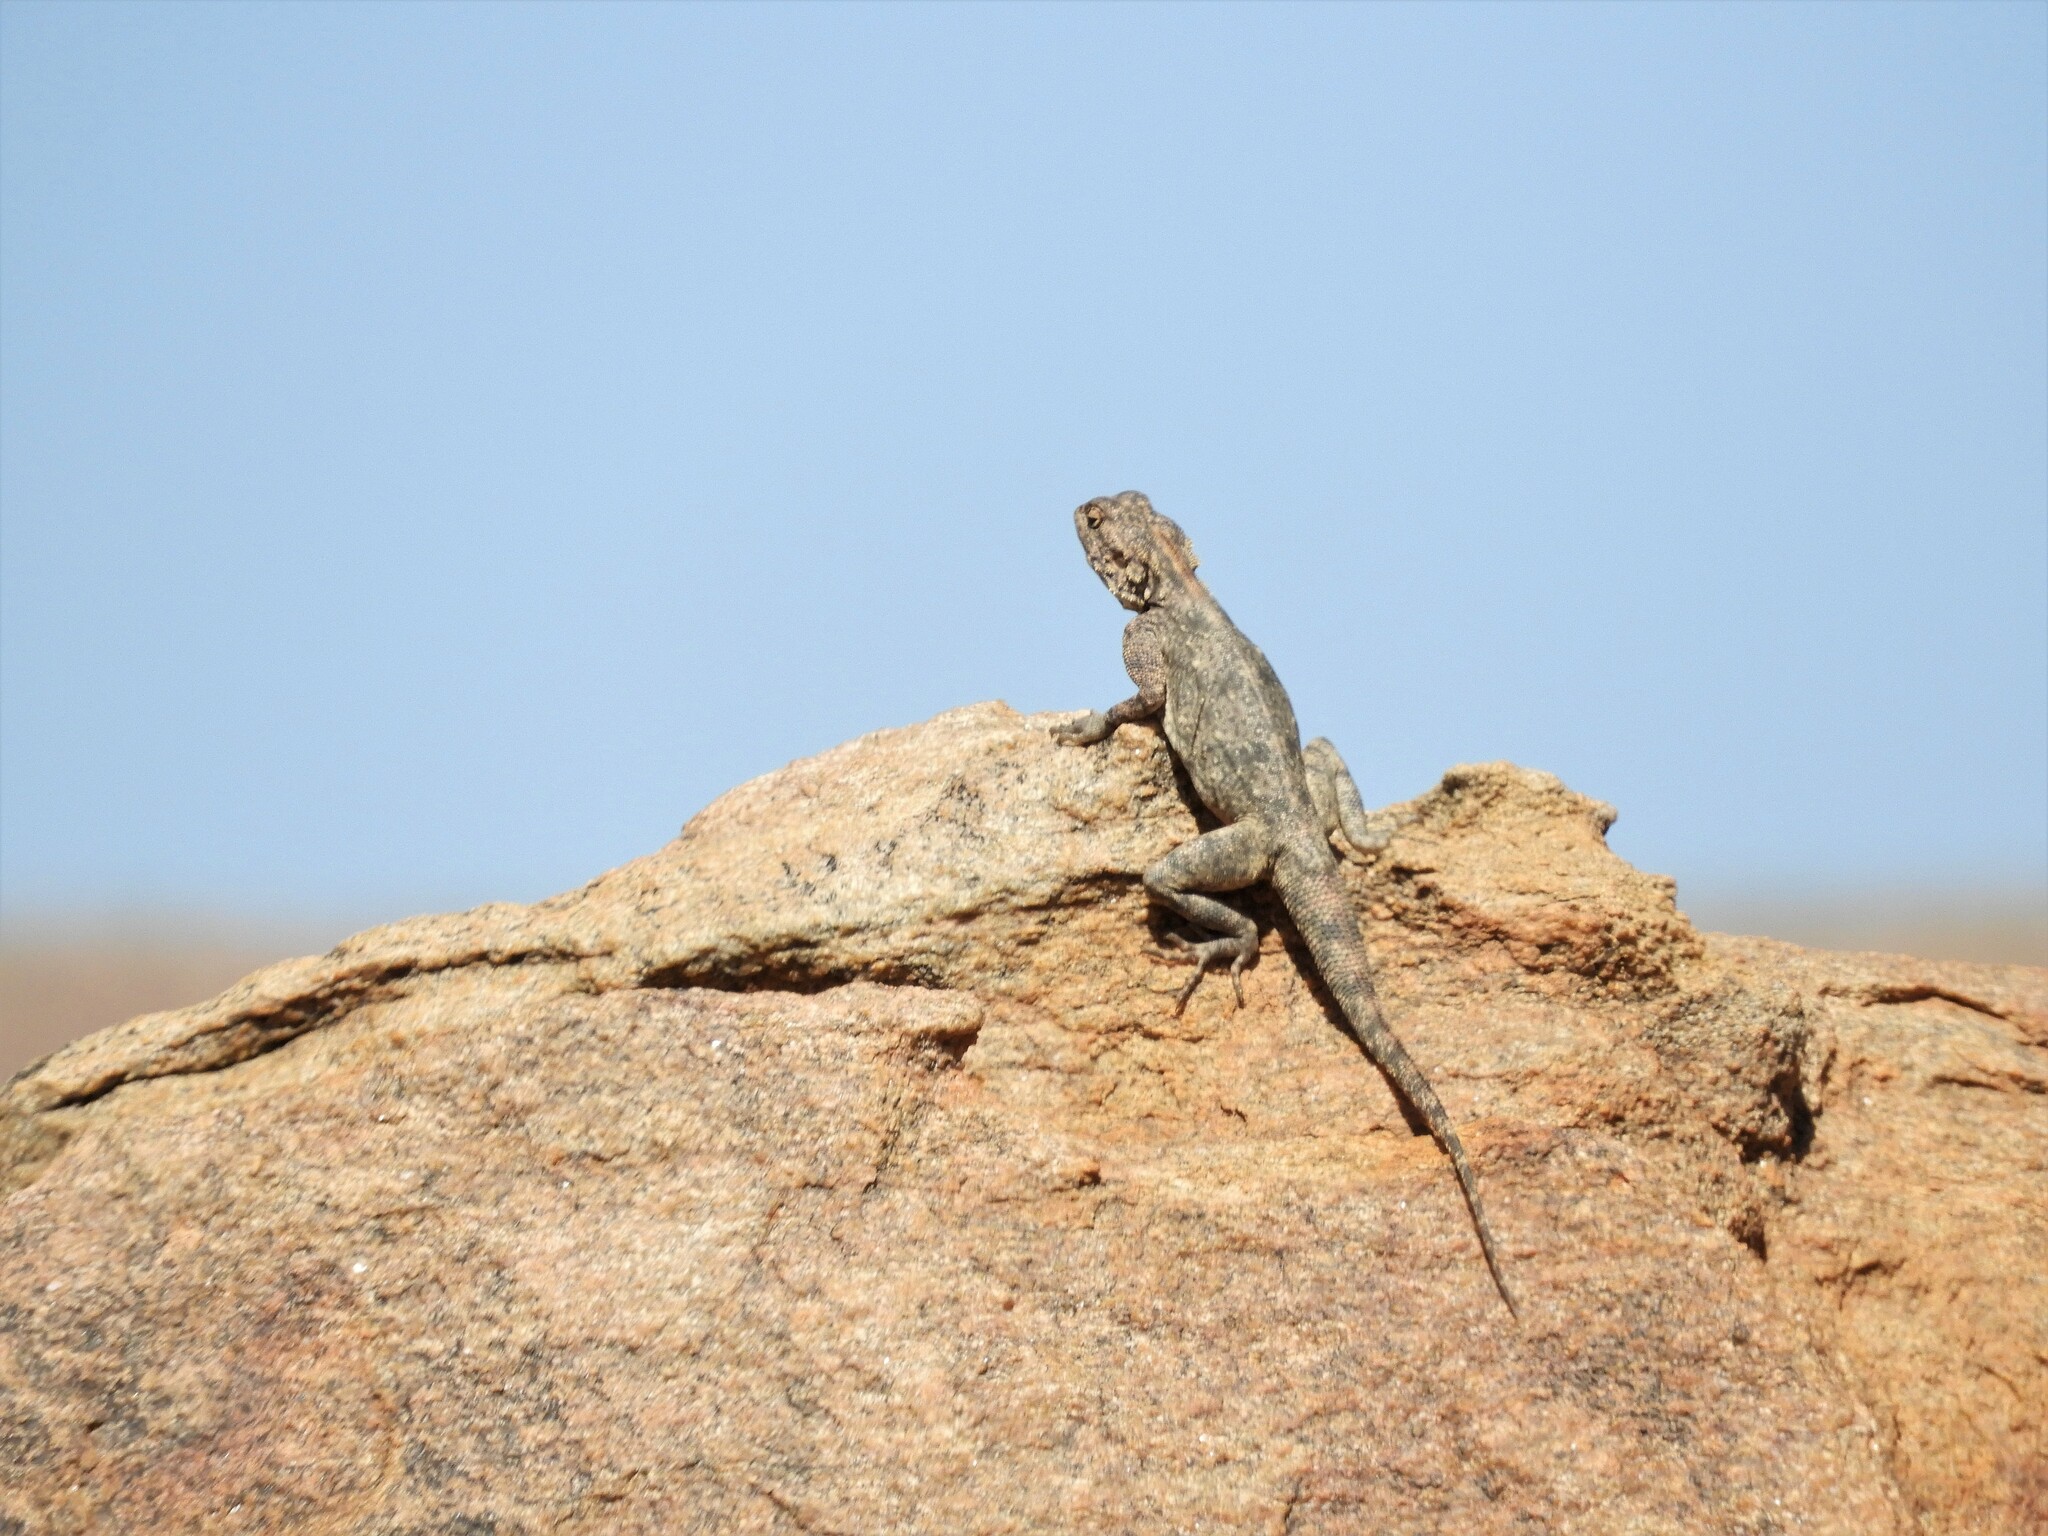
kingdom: Animalia
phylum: Chordata
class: Squamata
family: Agamidae
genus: Agama
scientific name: Agama atra
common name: Southern african rock agama
